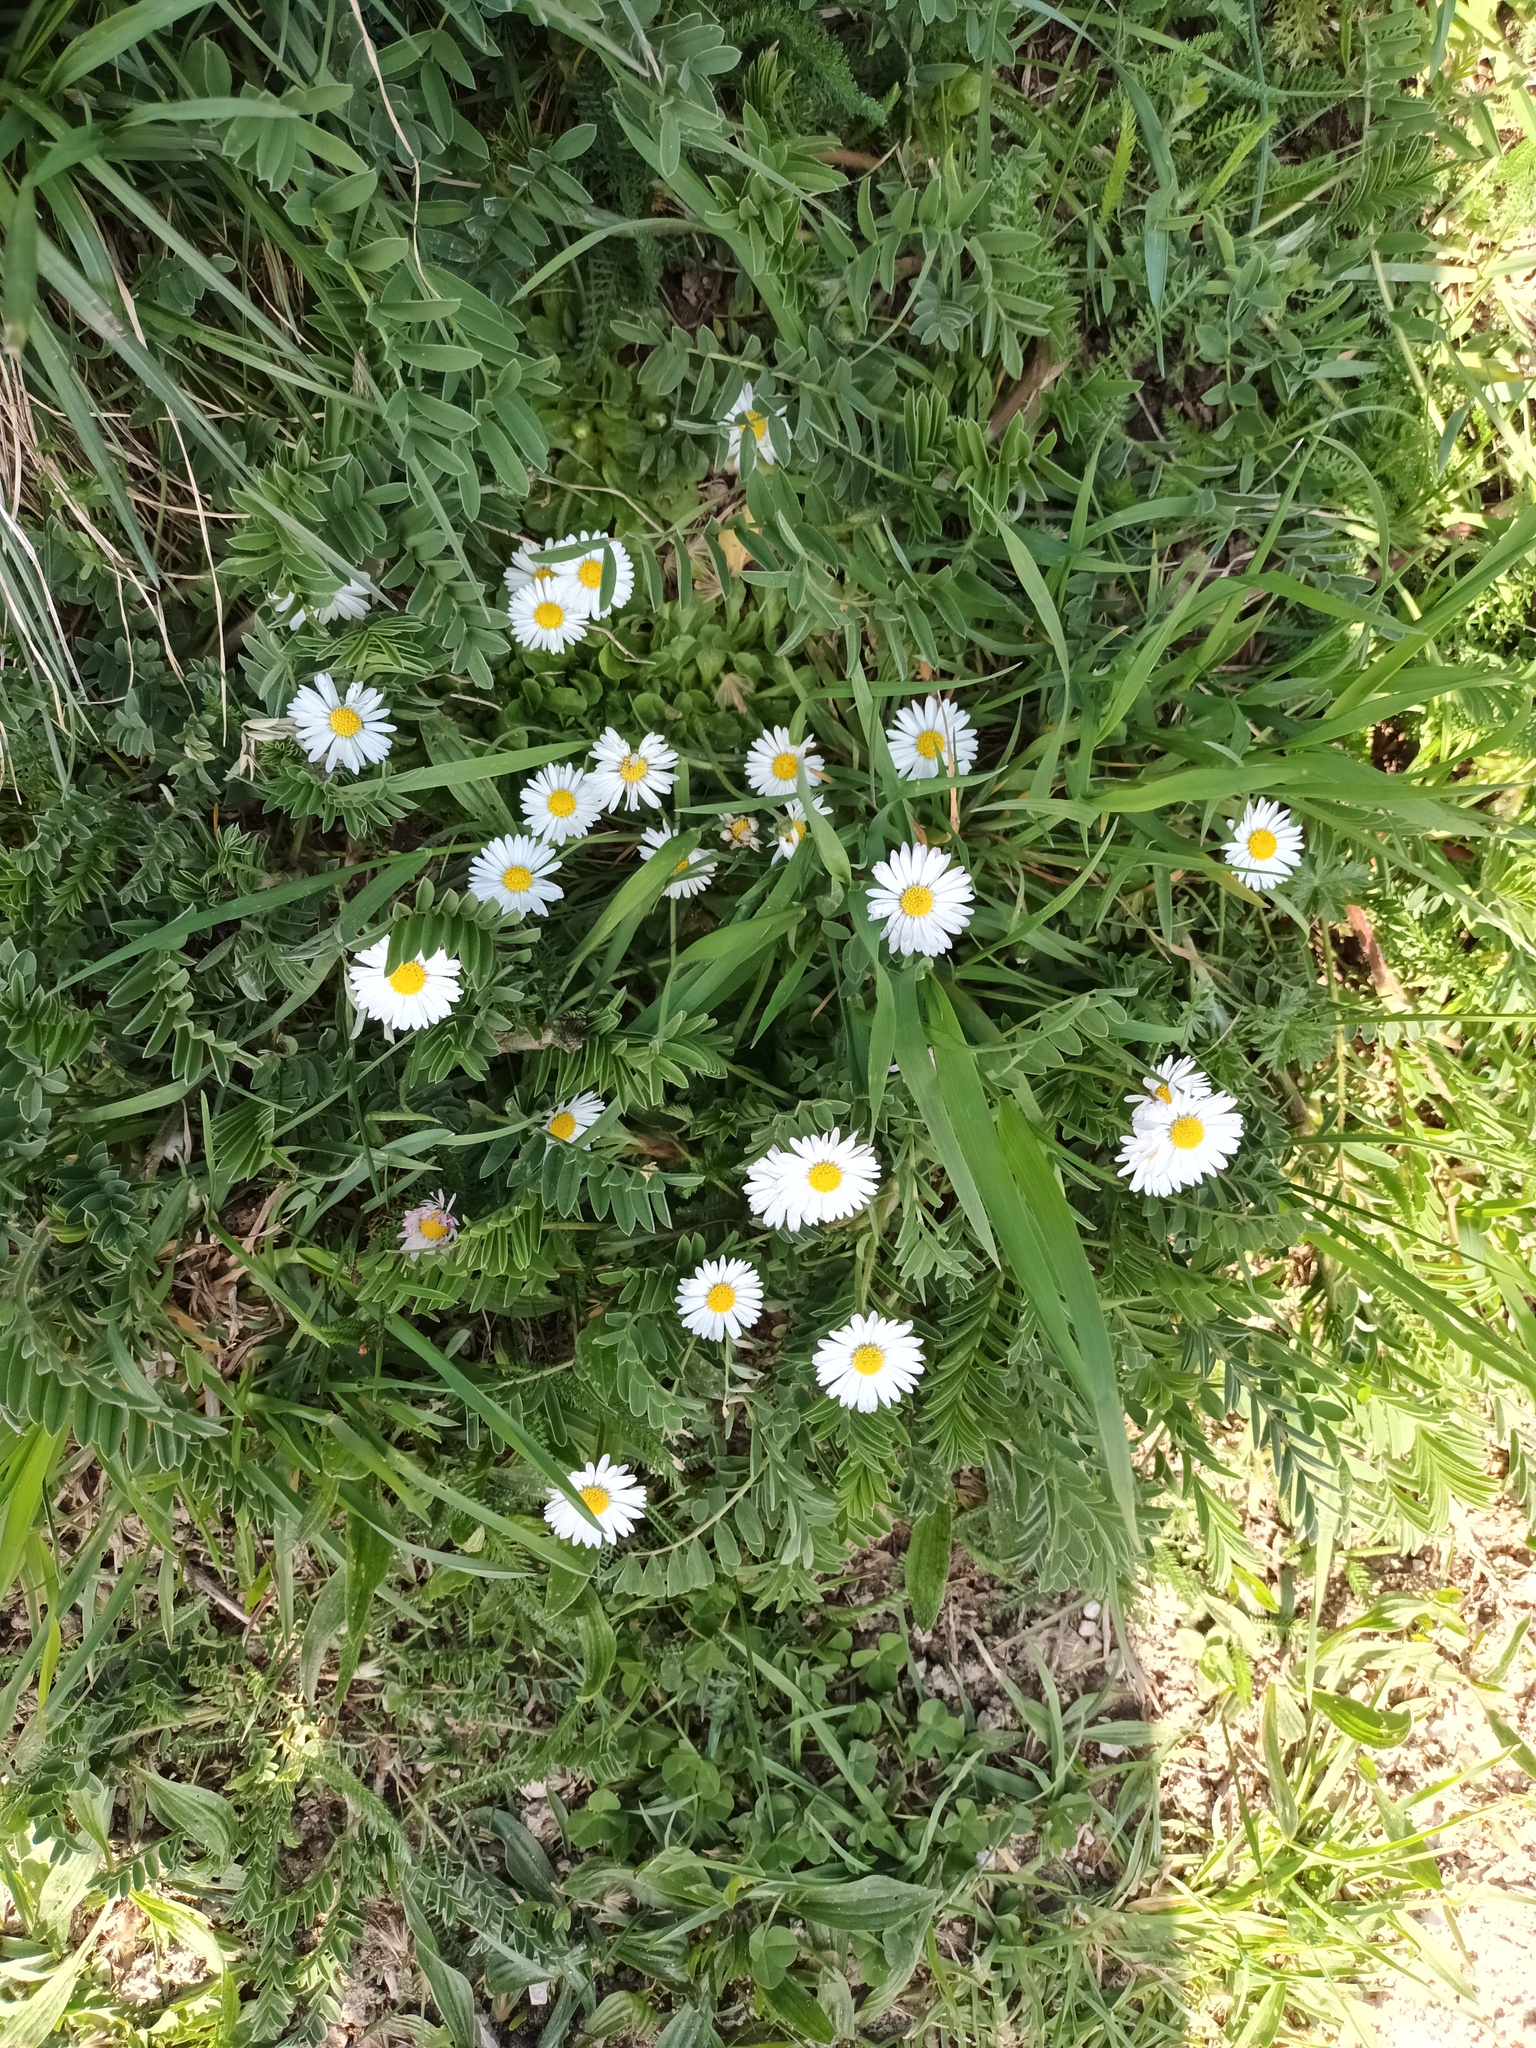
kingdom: Plantae
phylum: Tracheophyta
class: Magnoliopsida
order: Asterales
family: Asteraceae
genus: Bellis
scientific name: Bellis perennis
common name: Lawndaisy
